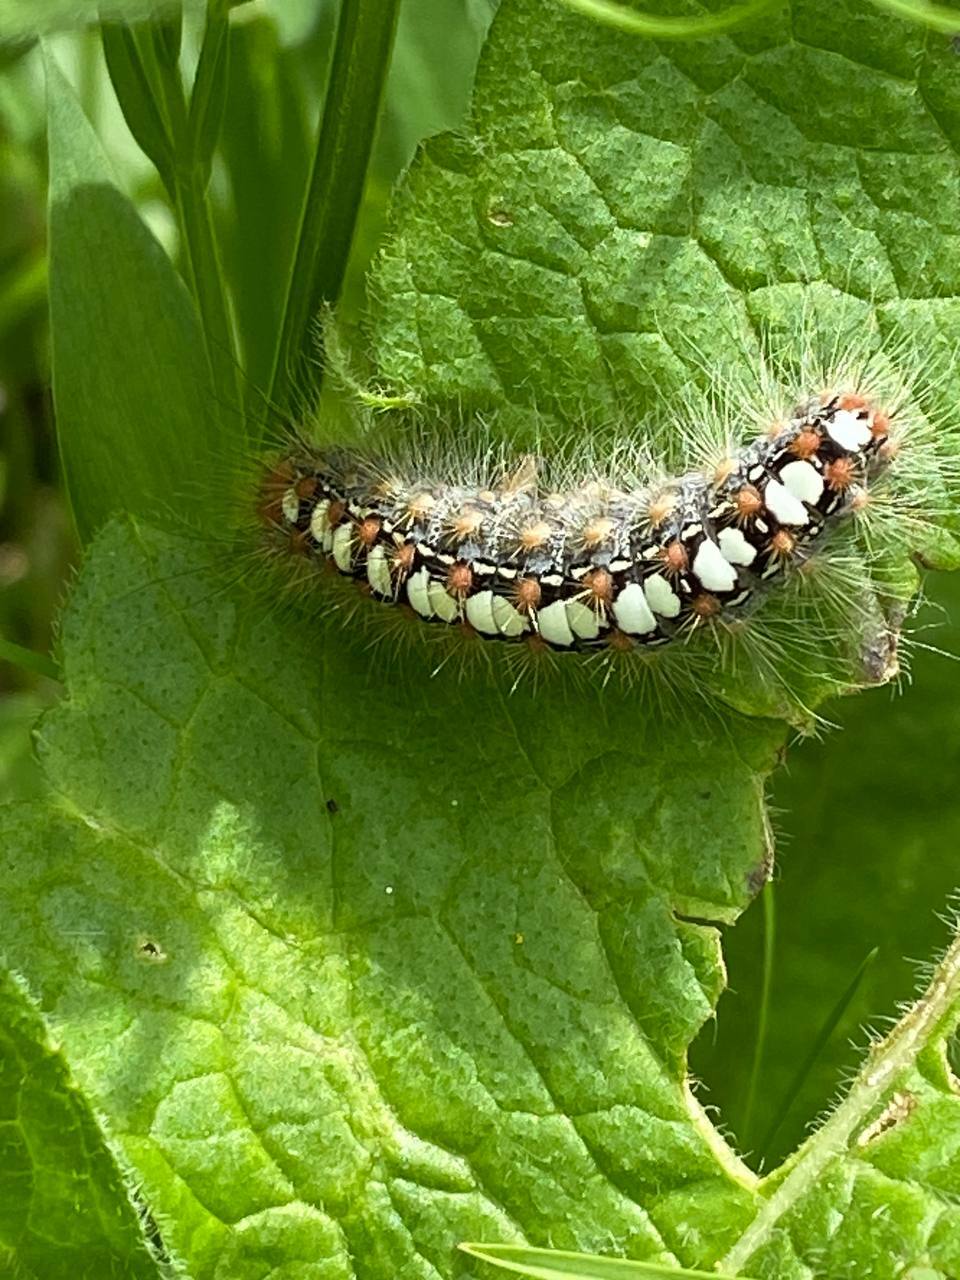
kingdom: Animalia
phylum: Arthropoda
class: Insecta
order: Lepidoptera
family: Erebidae
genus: Leucoma
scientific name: Leucoma salicis
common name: White satin moth
